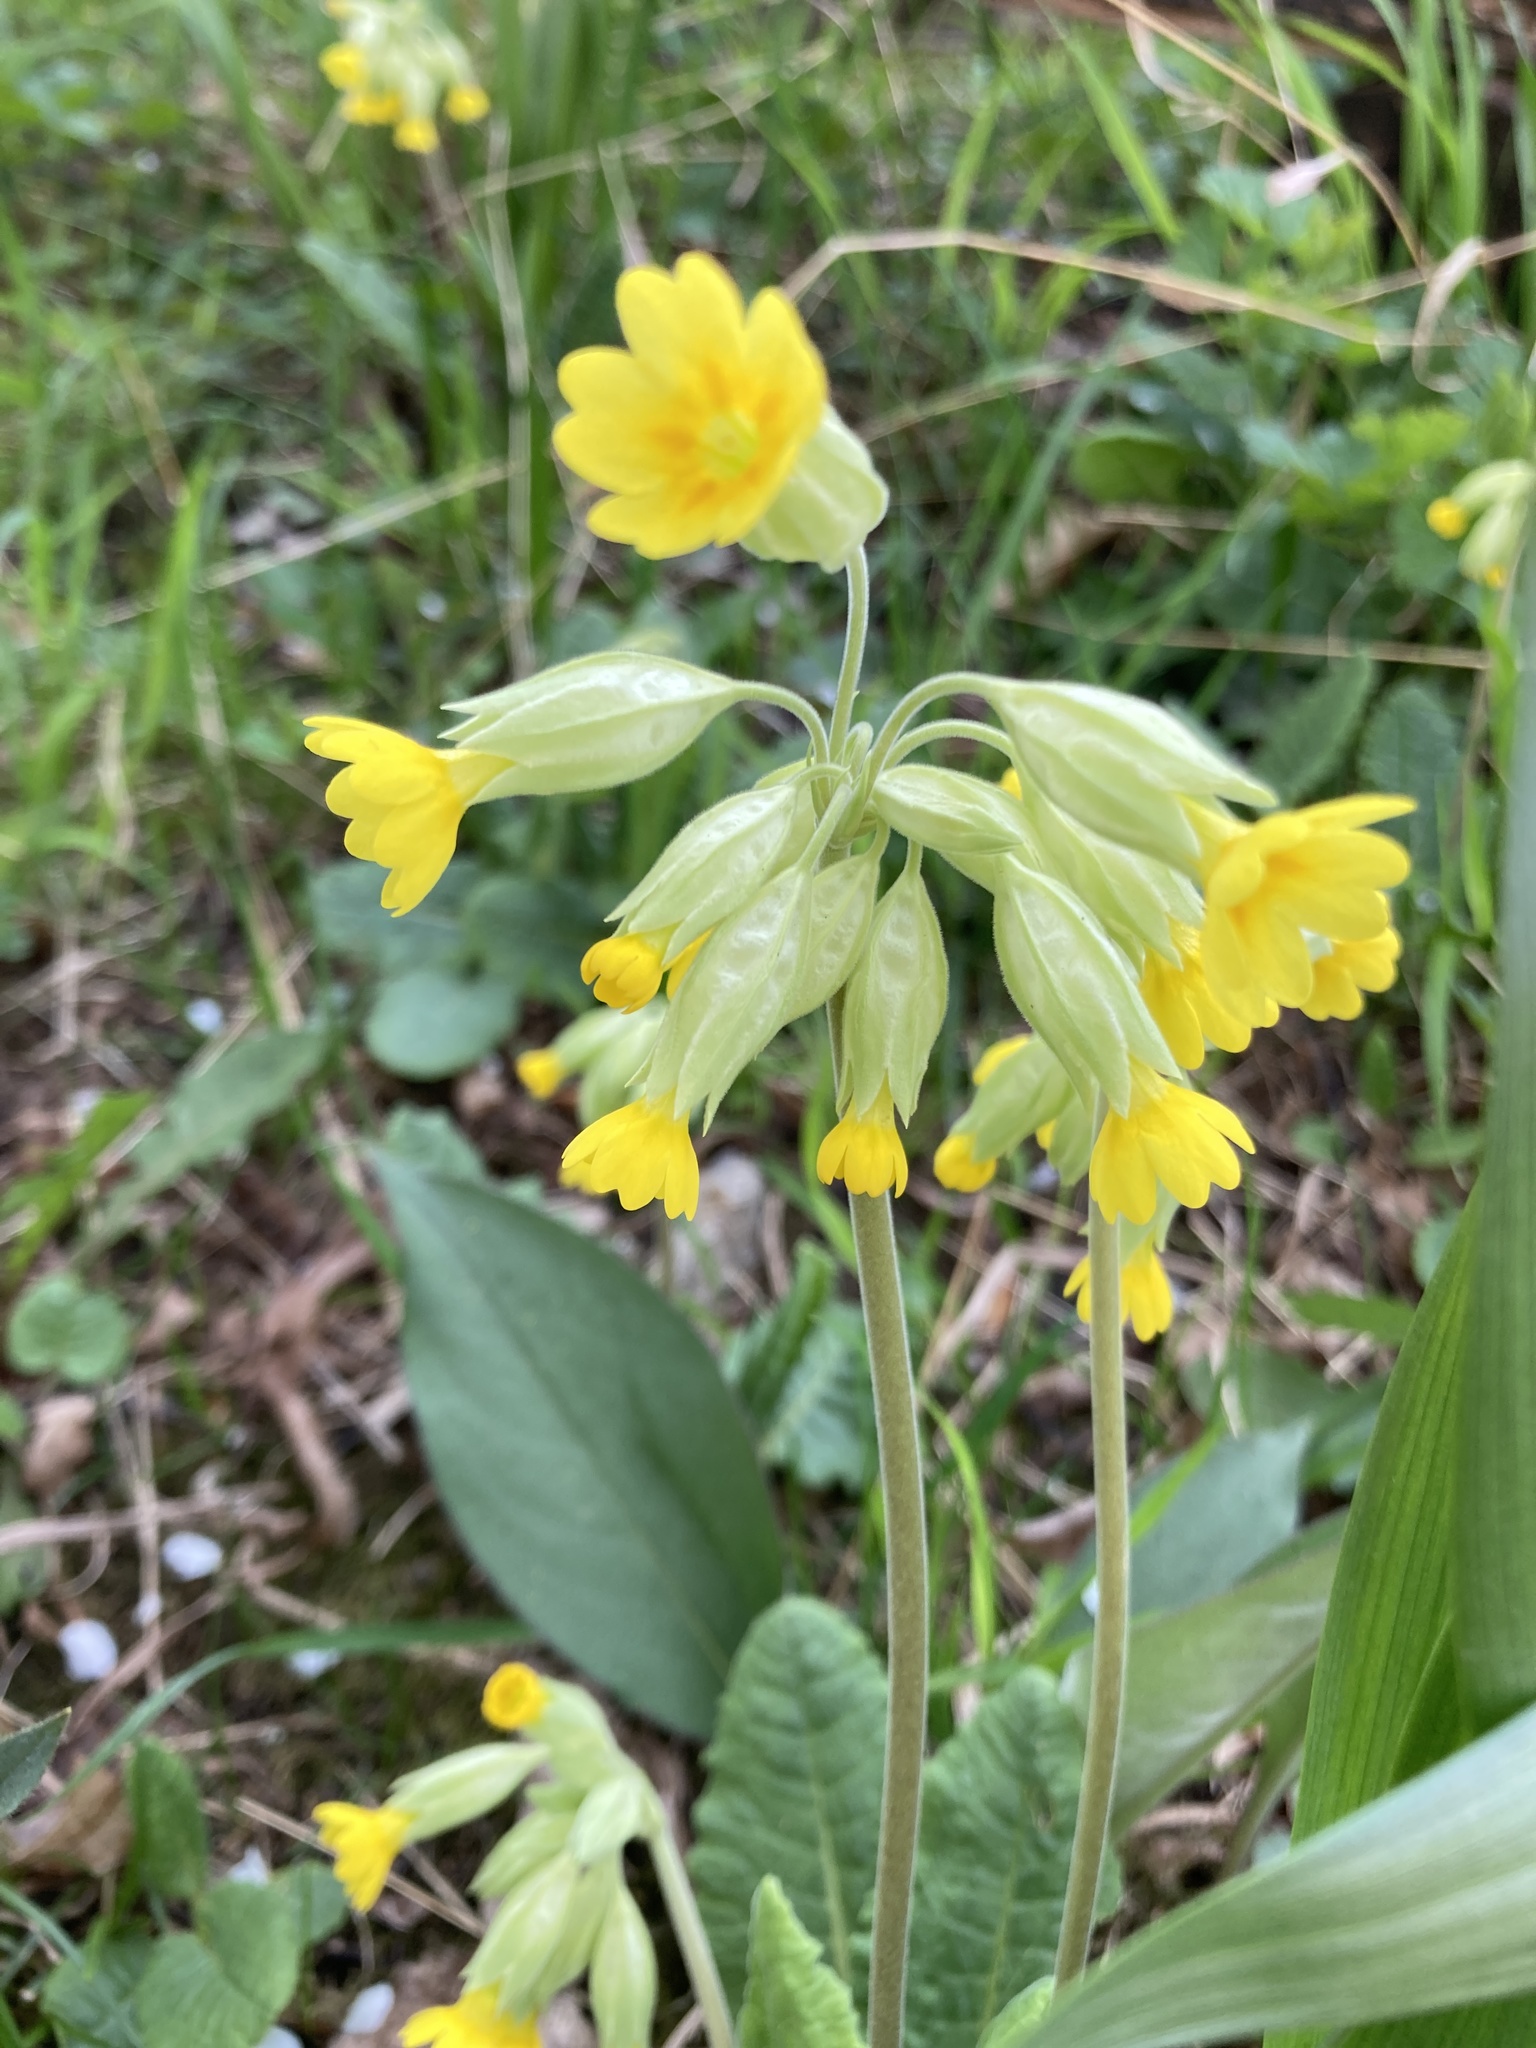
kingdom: Plantae
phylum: Tracheophyta
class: Magnoliopsida
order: Ericales
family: Primulaceae
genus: Primula
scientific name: Primula veris
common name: Cowslip
